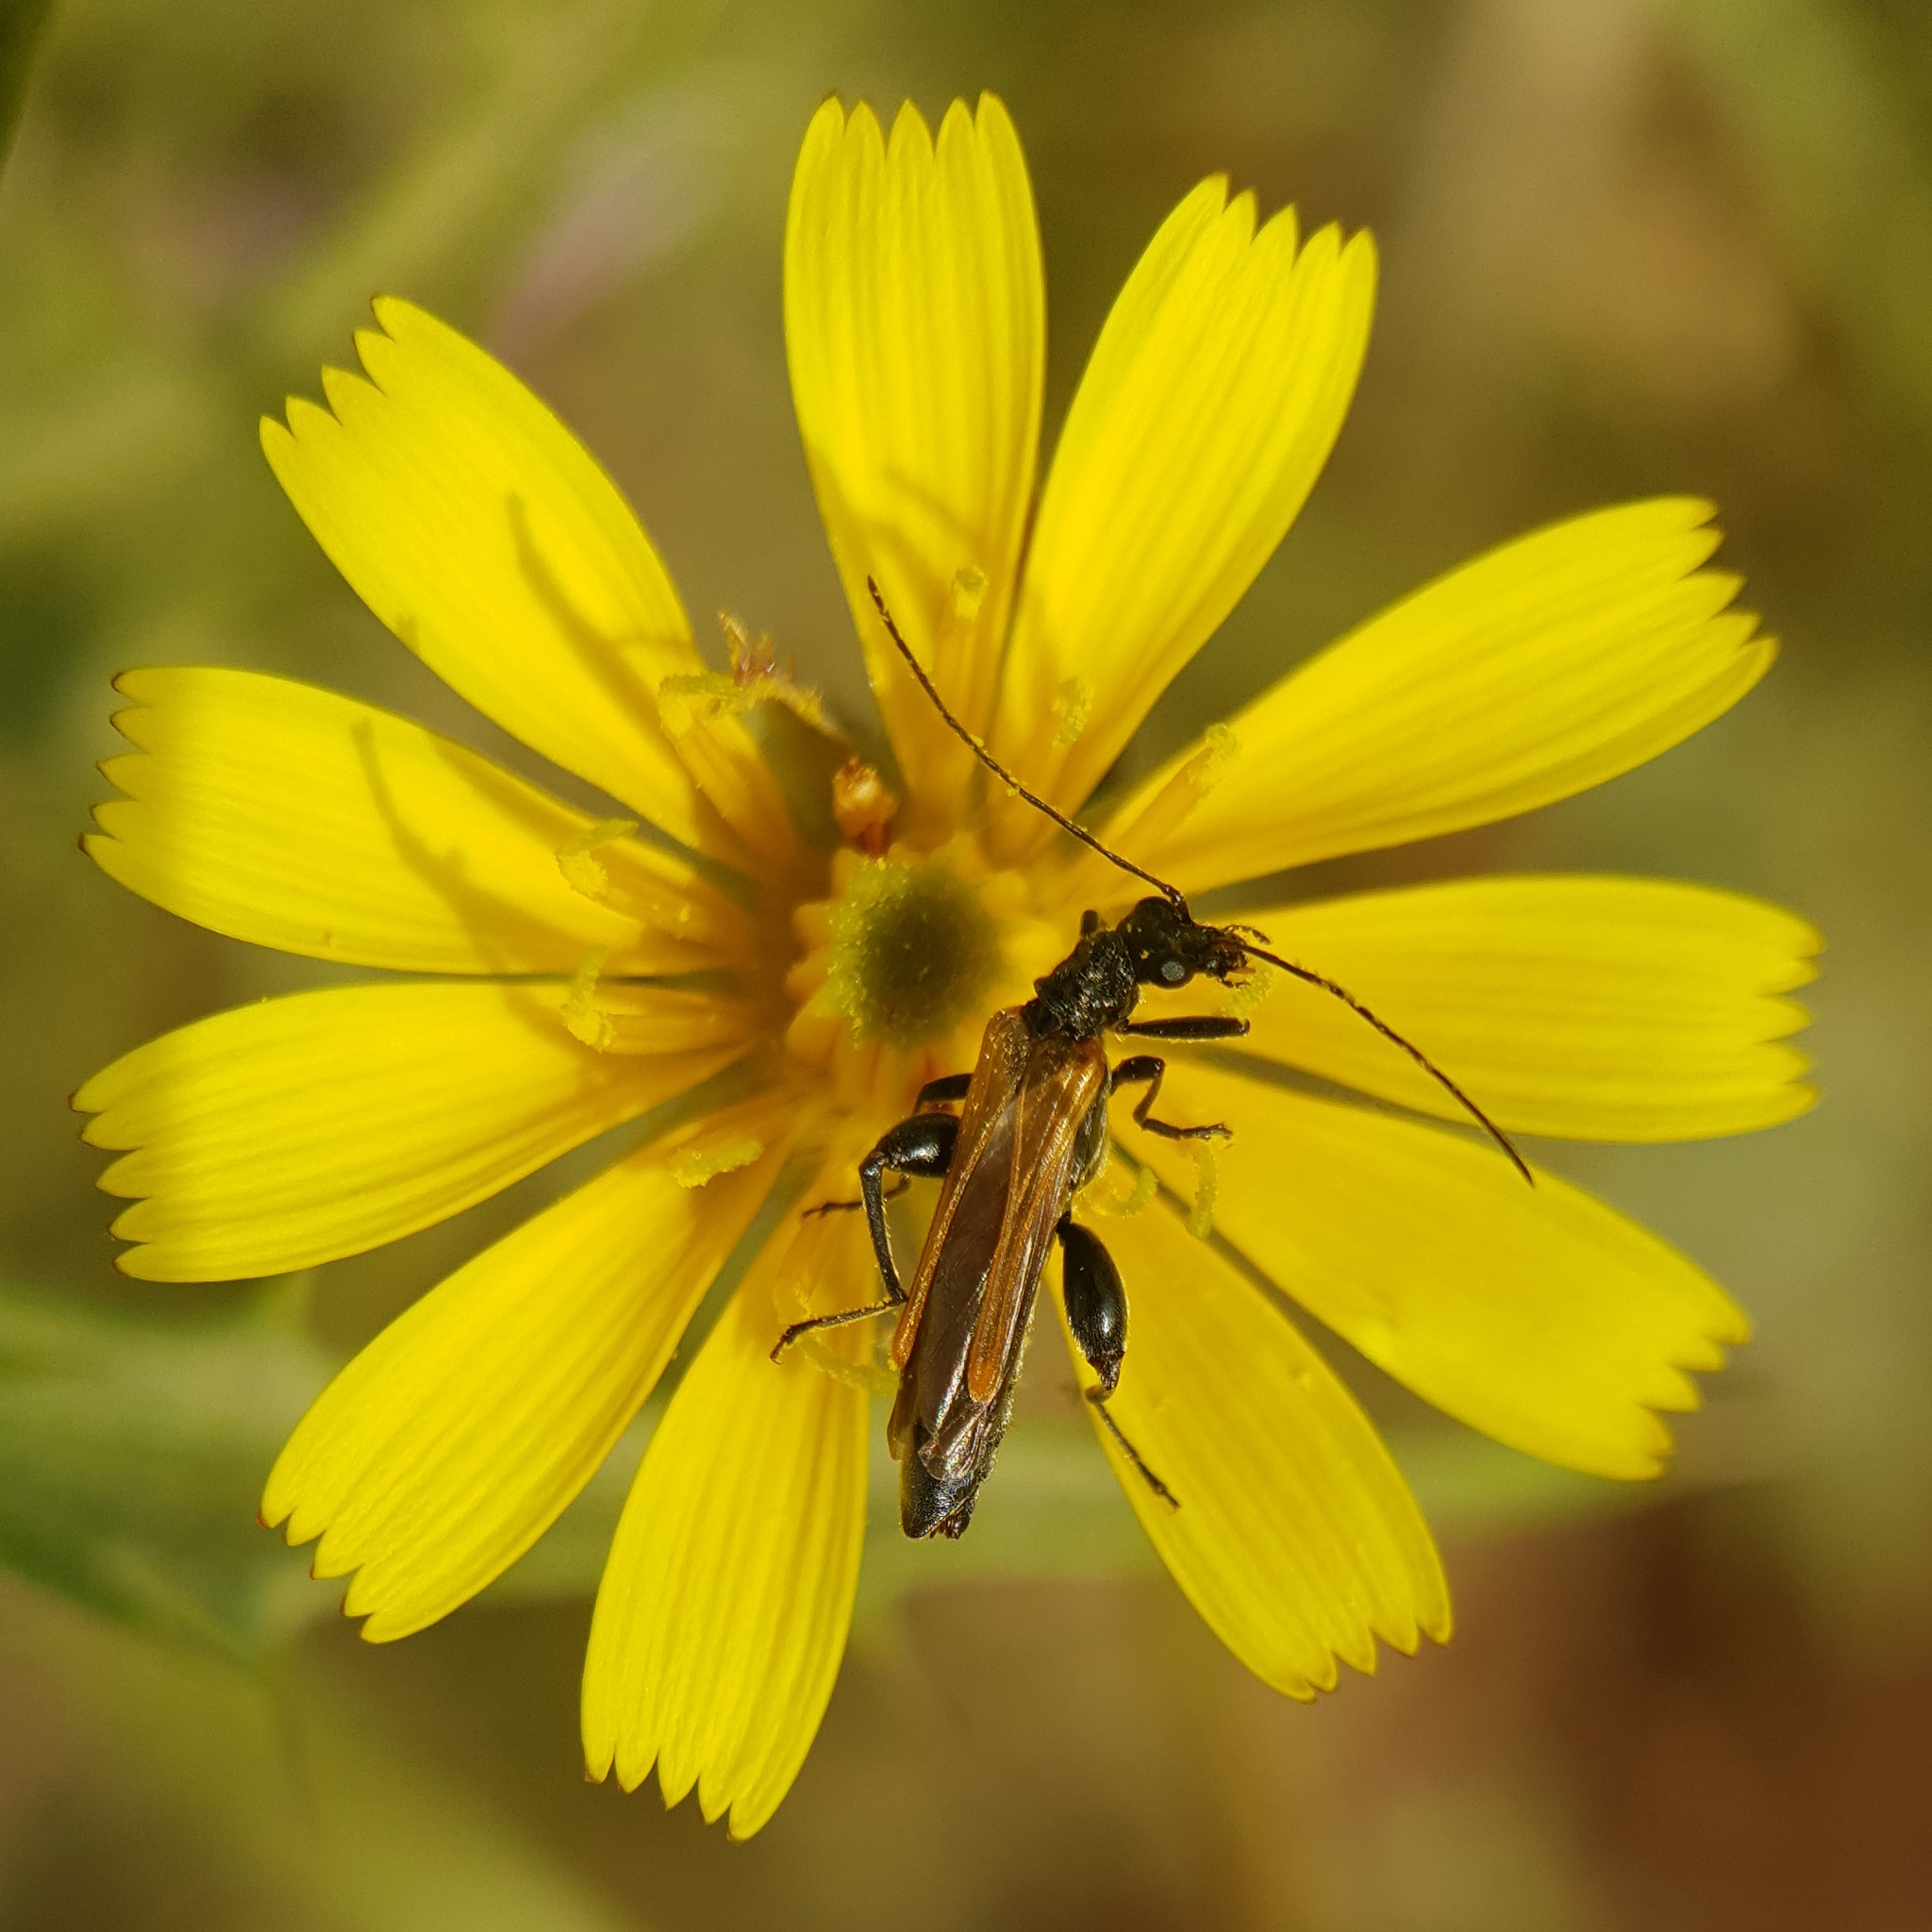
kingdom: Animalia
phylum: Arthropoda
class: Insecta
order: Coleoptera
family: Oedemeridae
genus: Oedemera
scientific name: Oedemera femorata
